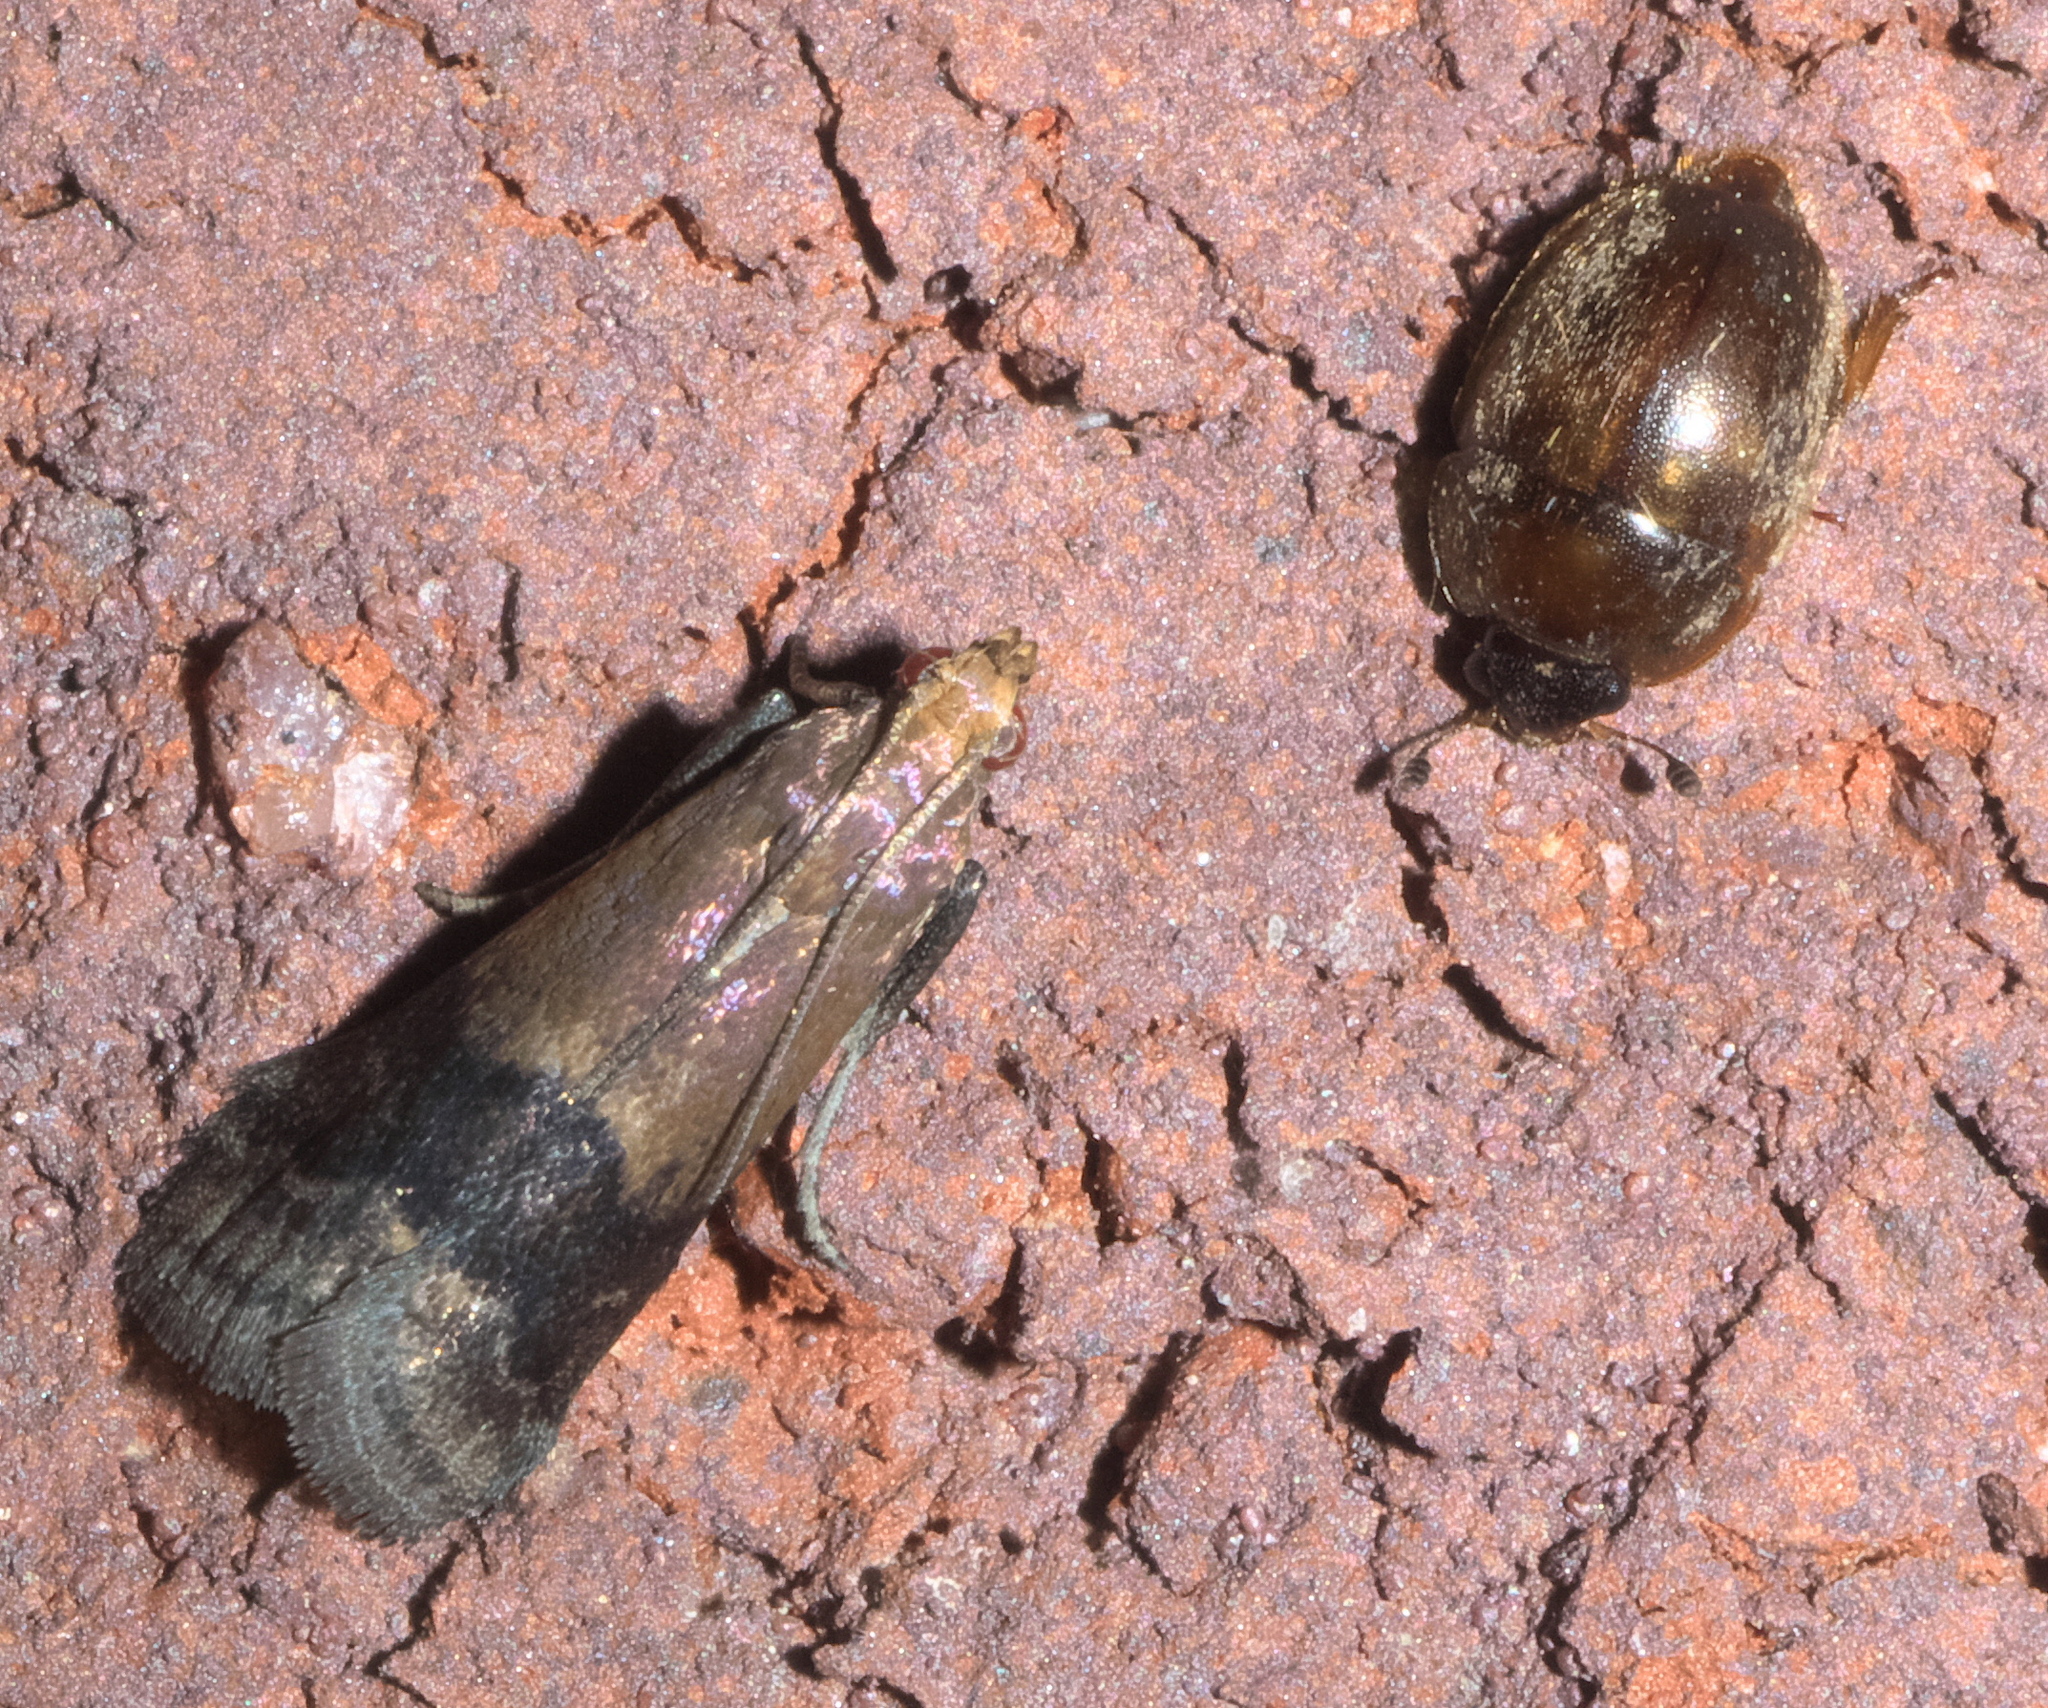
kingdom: Animalia
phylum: Arthropoda
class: Insecta
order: Lepidoptera
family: Pyralidae
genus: Eulogia
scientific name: Eulogia ochrifrontella
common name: Broad-banded eulogia moth
